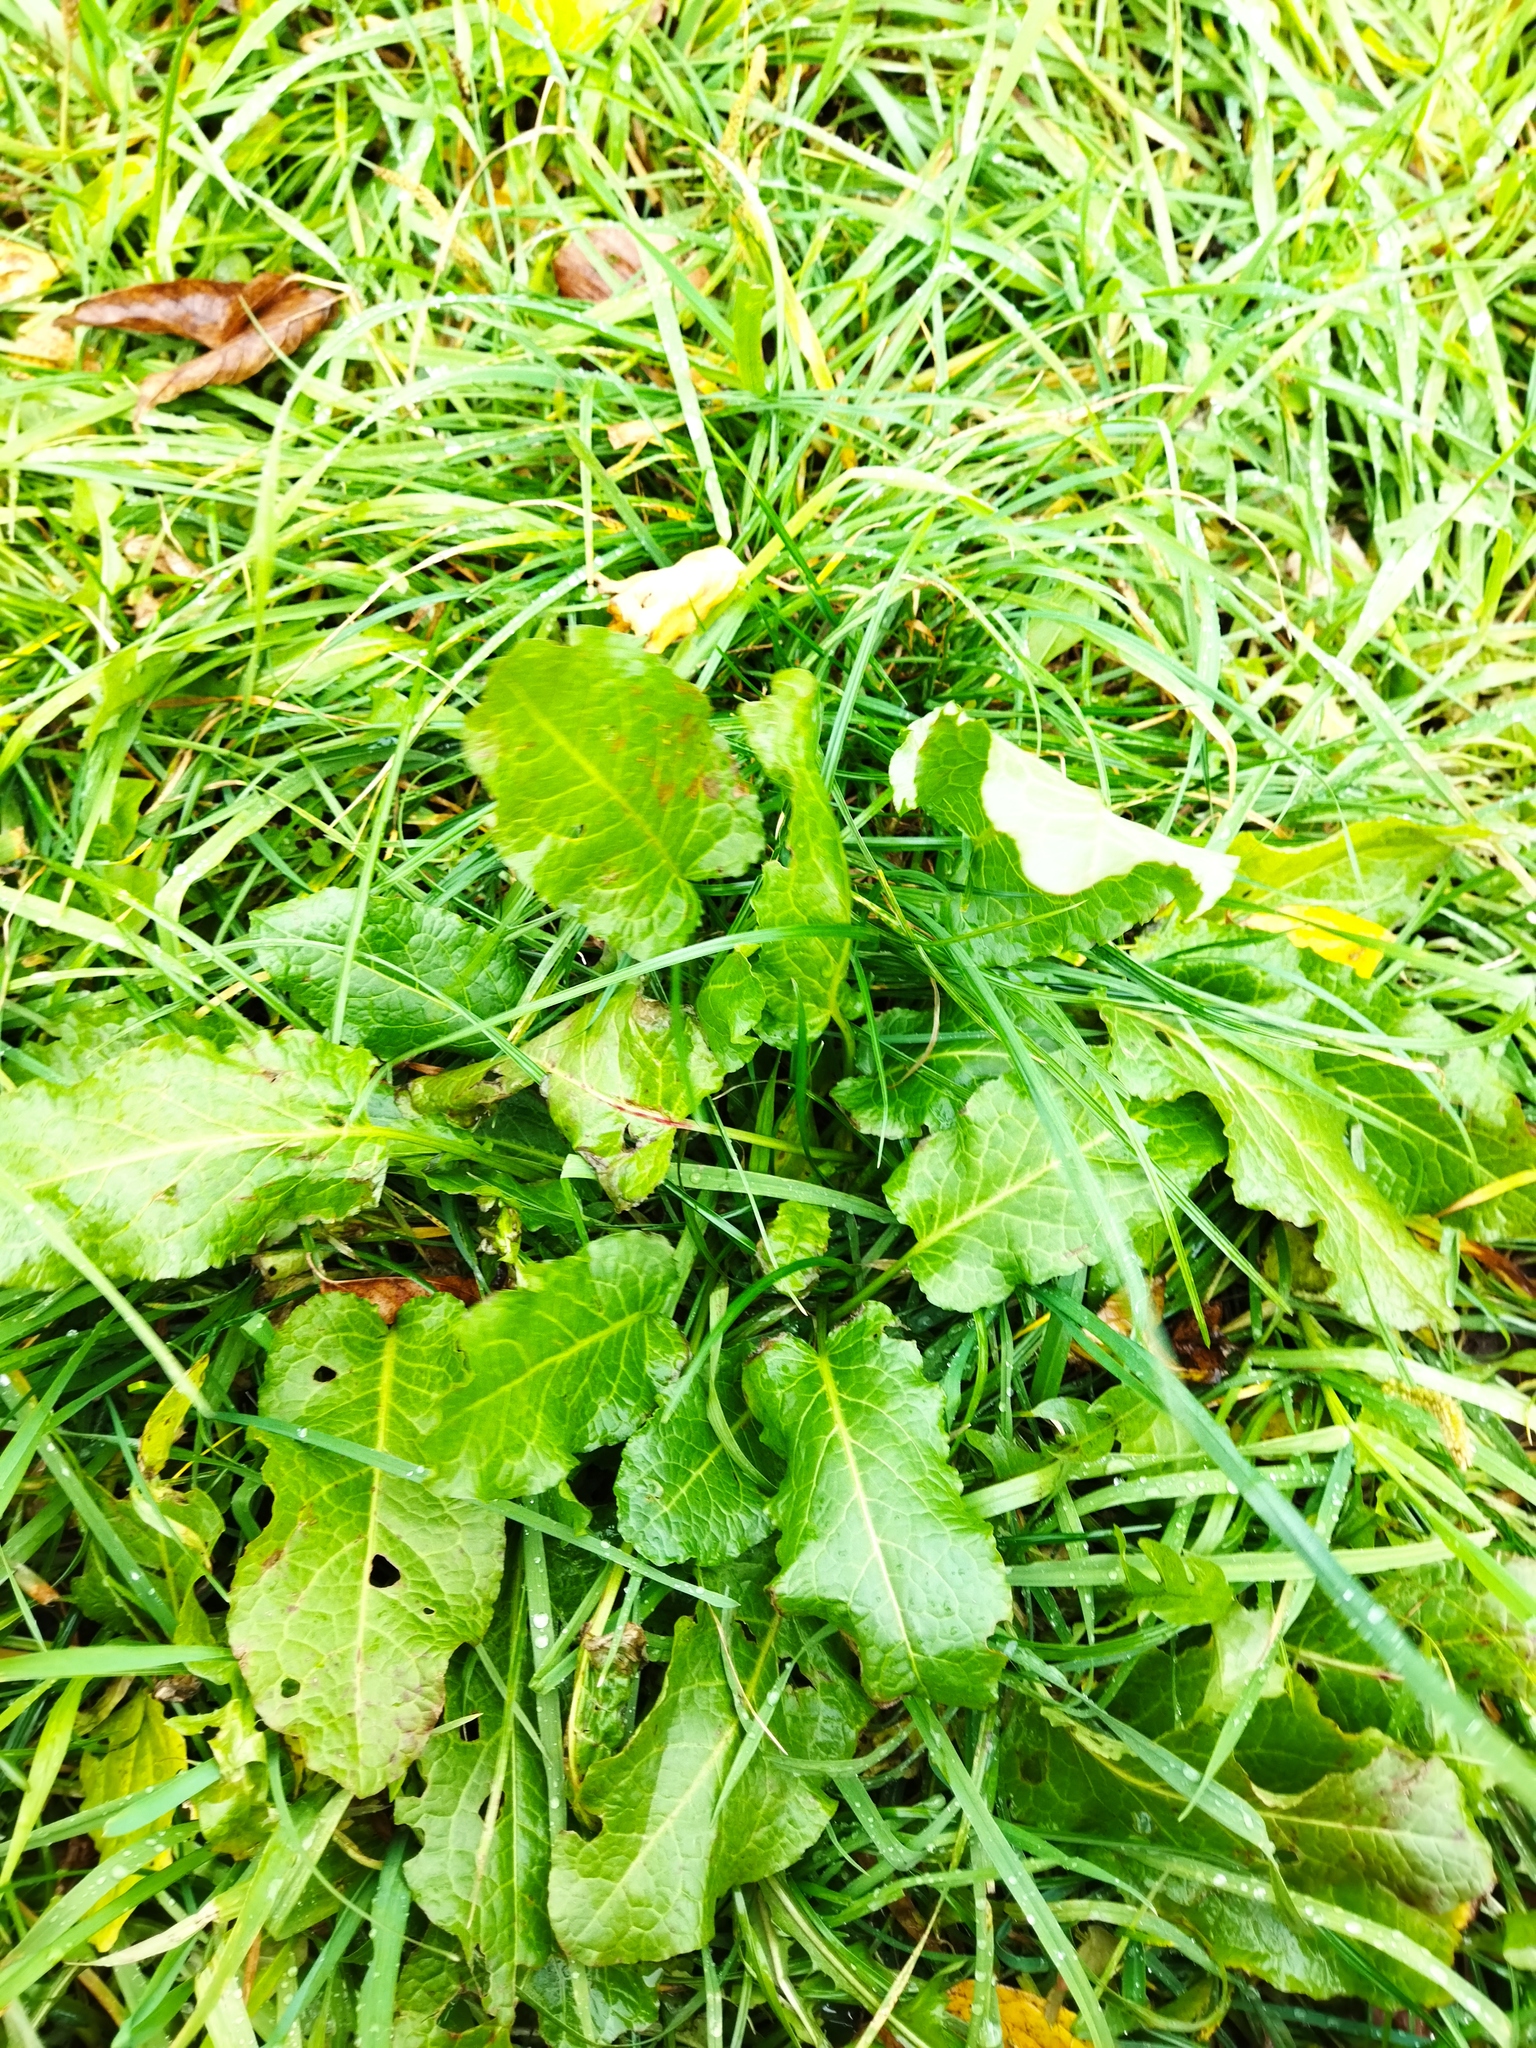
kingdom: Plantae
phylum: Tracheophyta
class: Magnoliopsida
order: Caryophyllales
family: Polygonaceae
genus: Rumex
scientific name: Rumex obtusifolius
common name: Bitter dock
